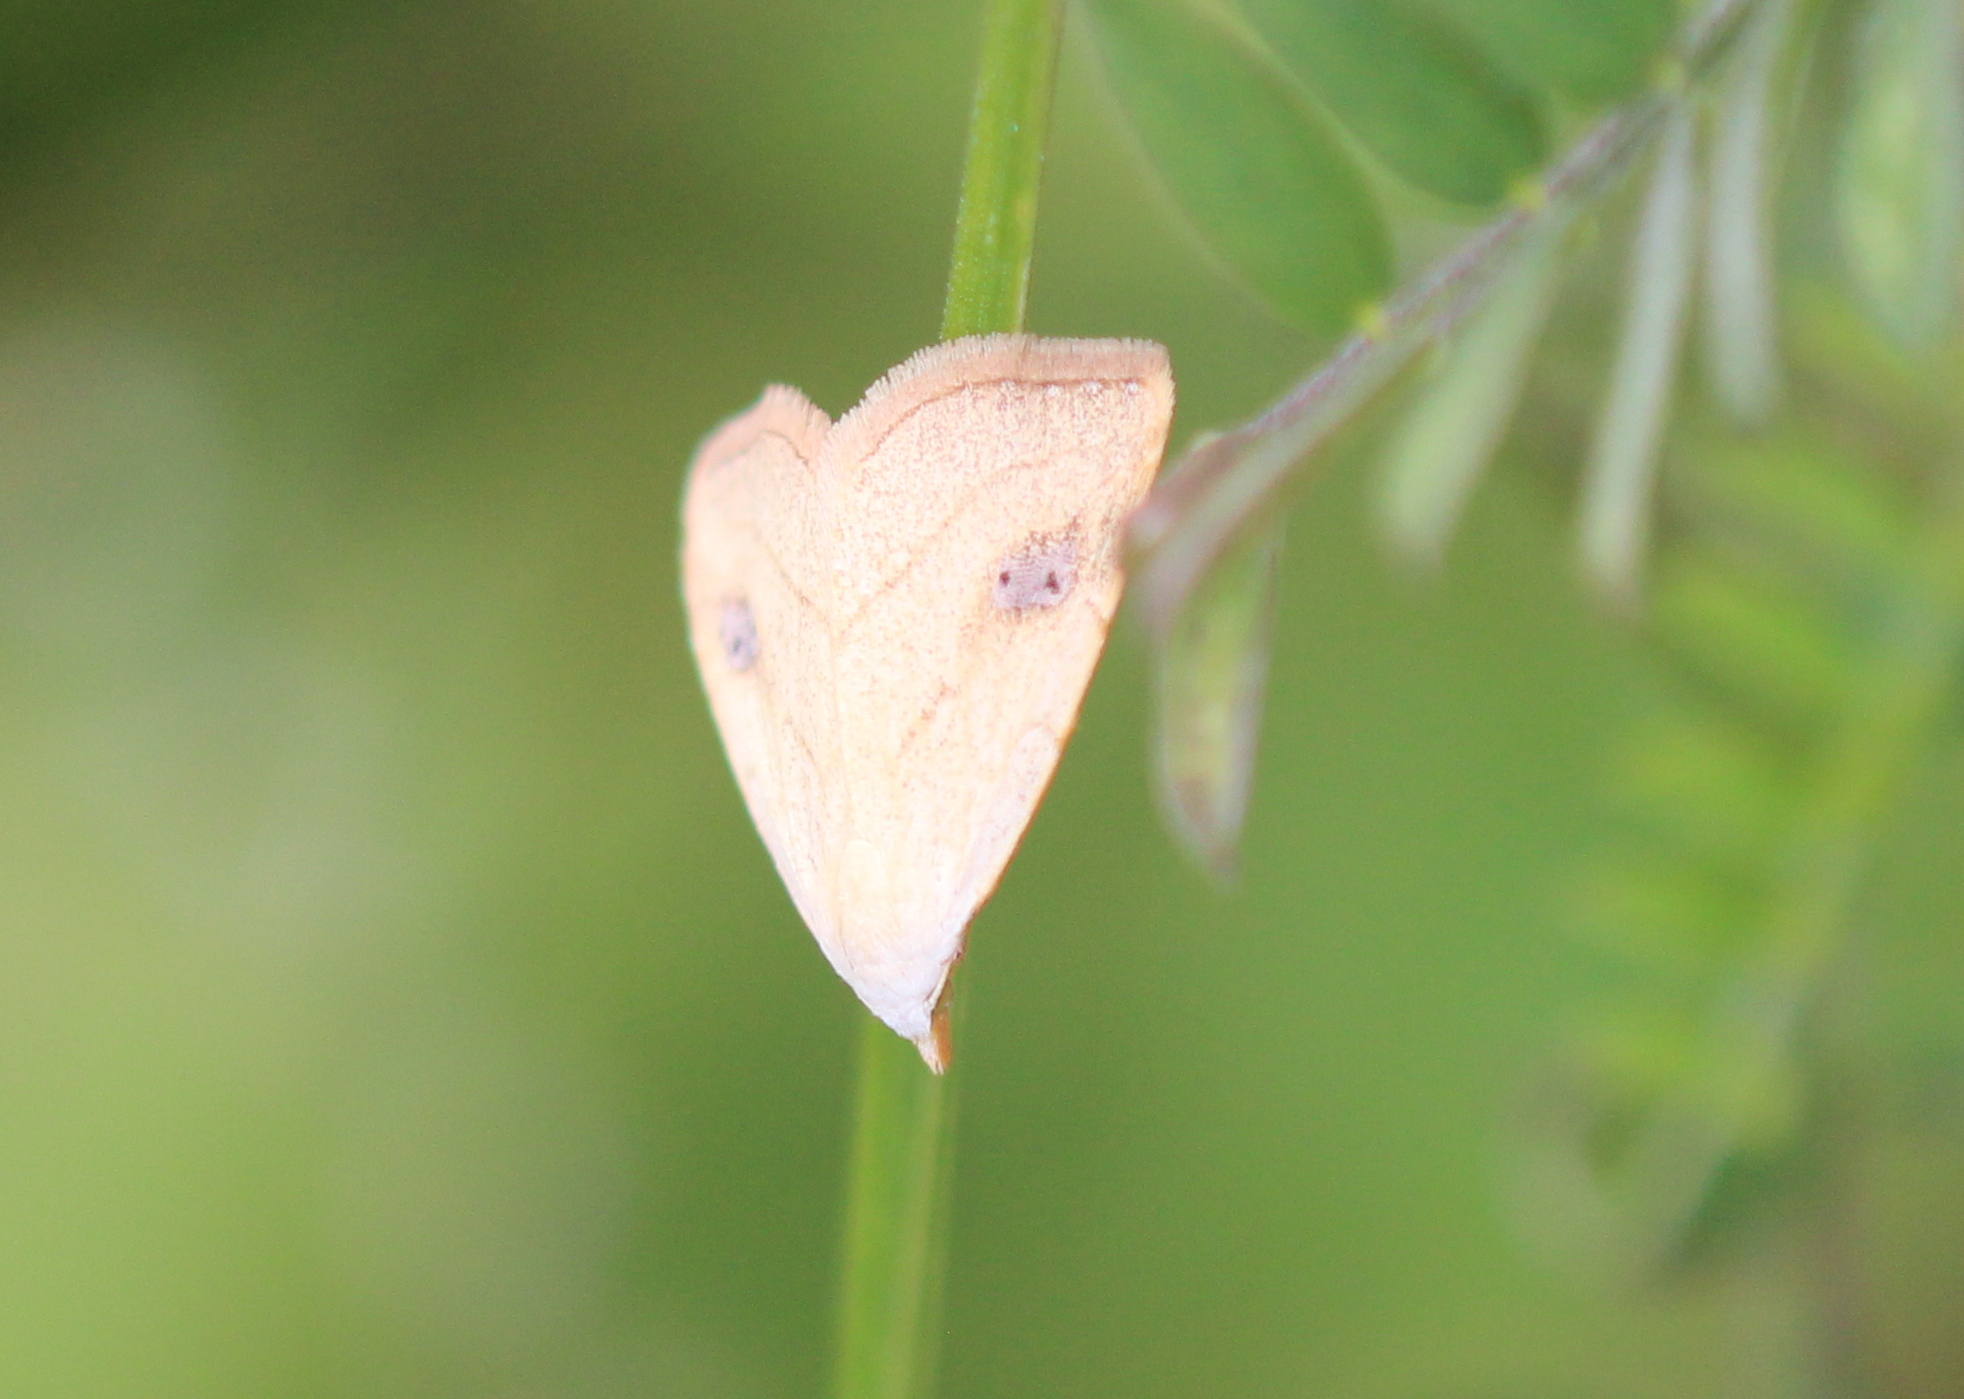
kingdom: Animalia
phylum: Arthropoda
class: Insecta
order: Lepidoptera
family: Erebidae
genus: Rivula
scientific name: Rivula propinqualis
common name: Spotted grass moth
